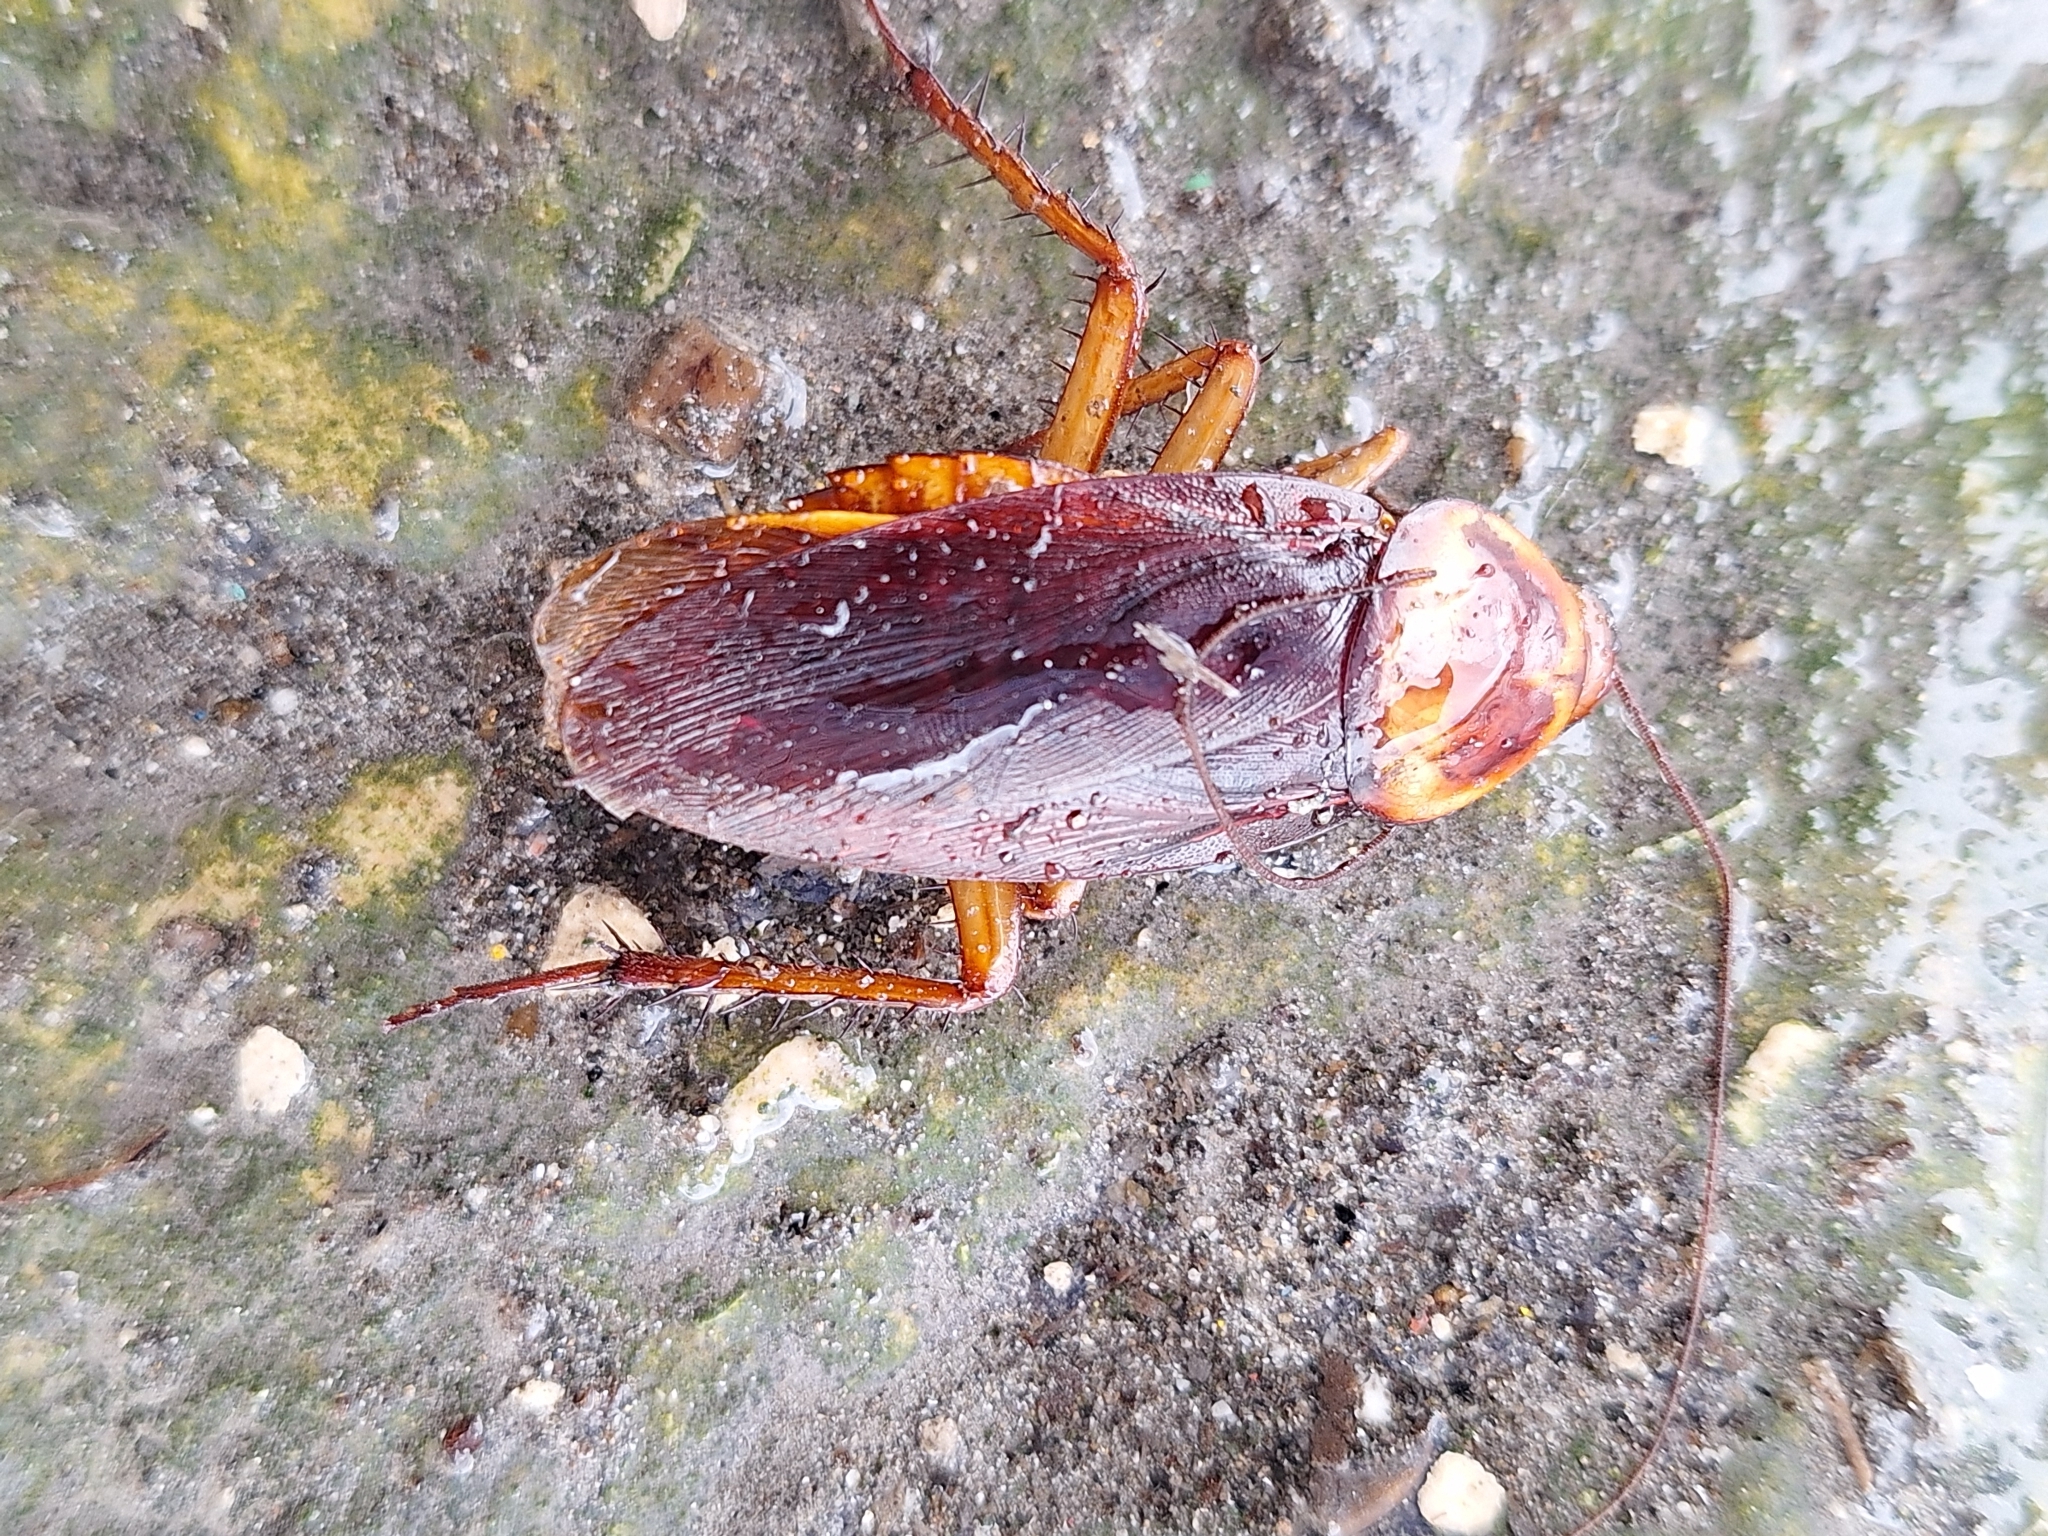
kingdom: Animalia
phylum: Arthropoda
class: Insecta
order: Blattodea
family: Blattidae
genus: Periplaneta
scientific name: Periplaneta americana
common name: American cockroach
